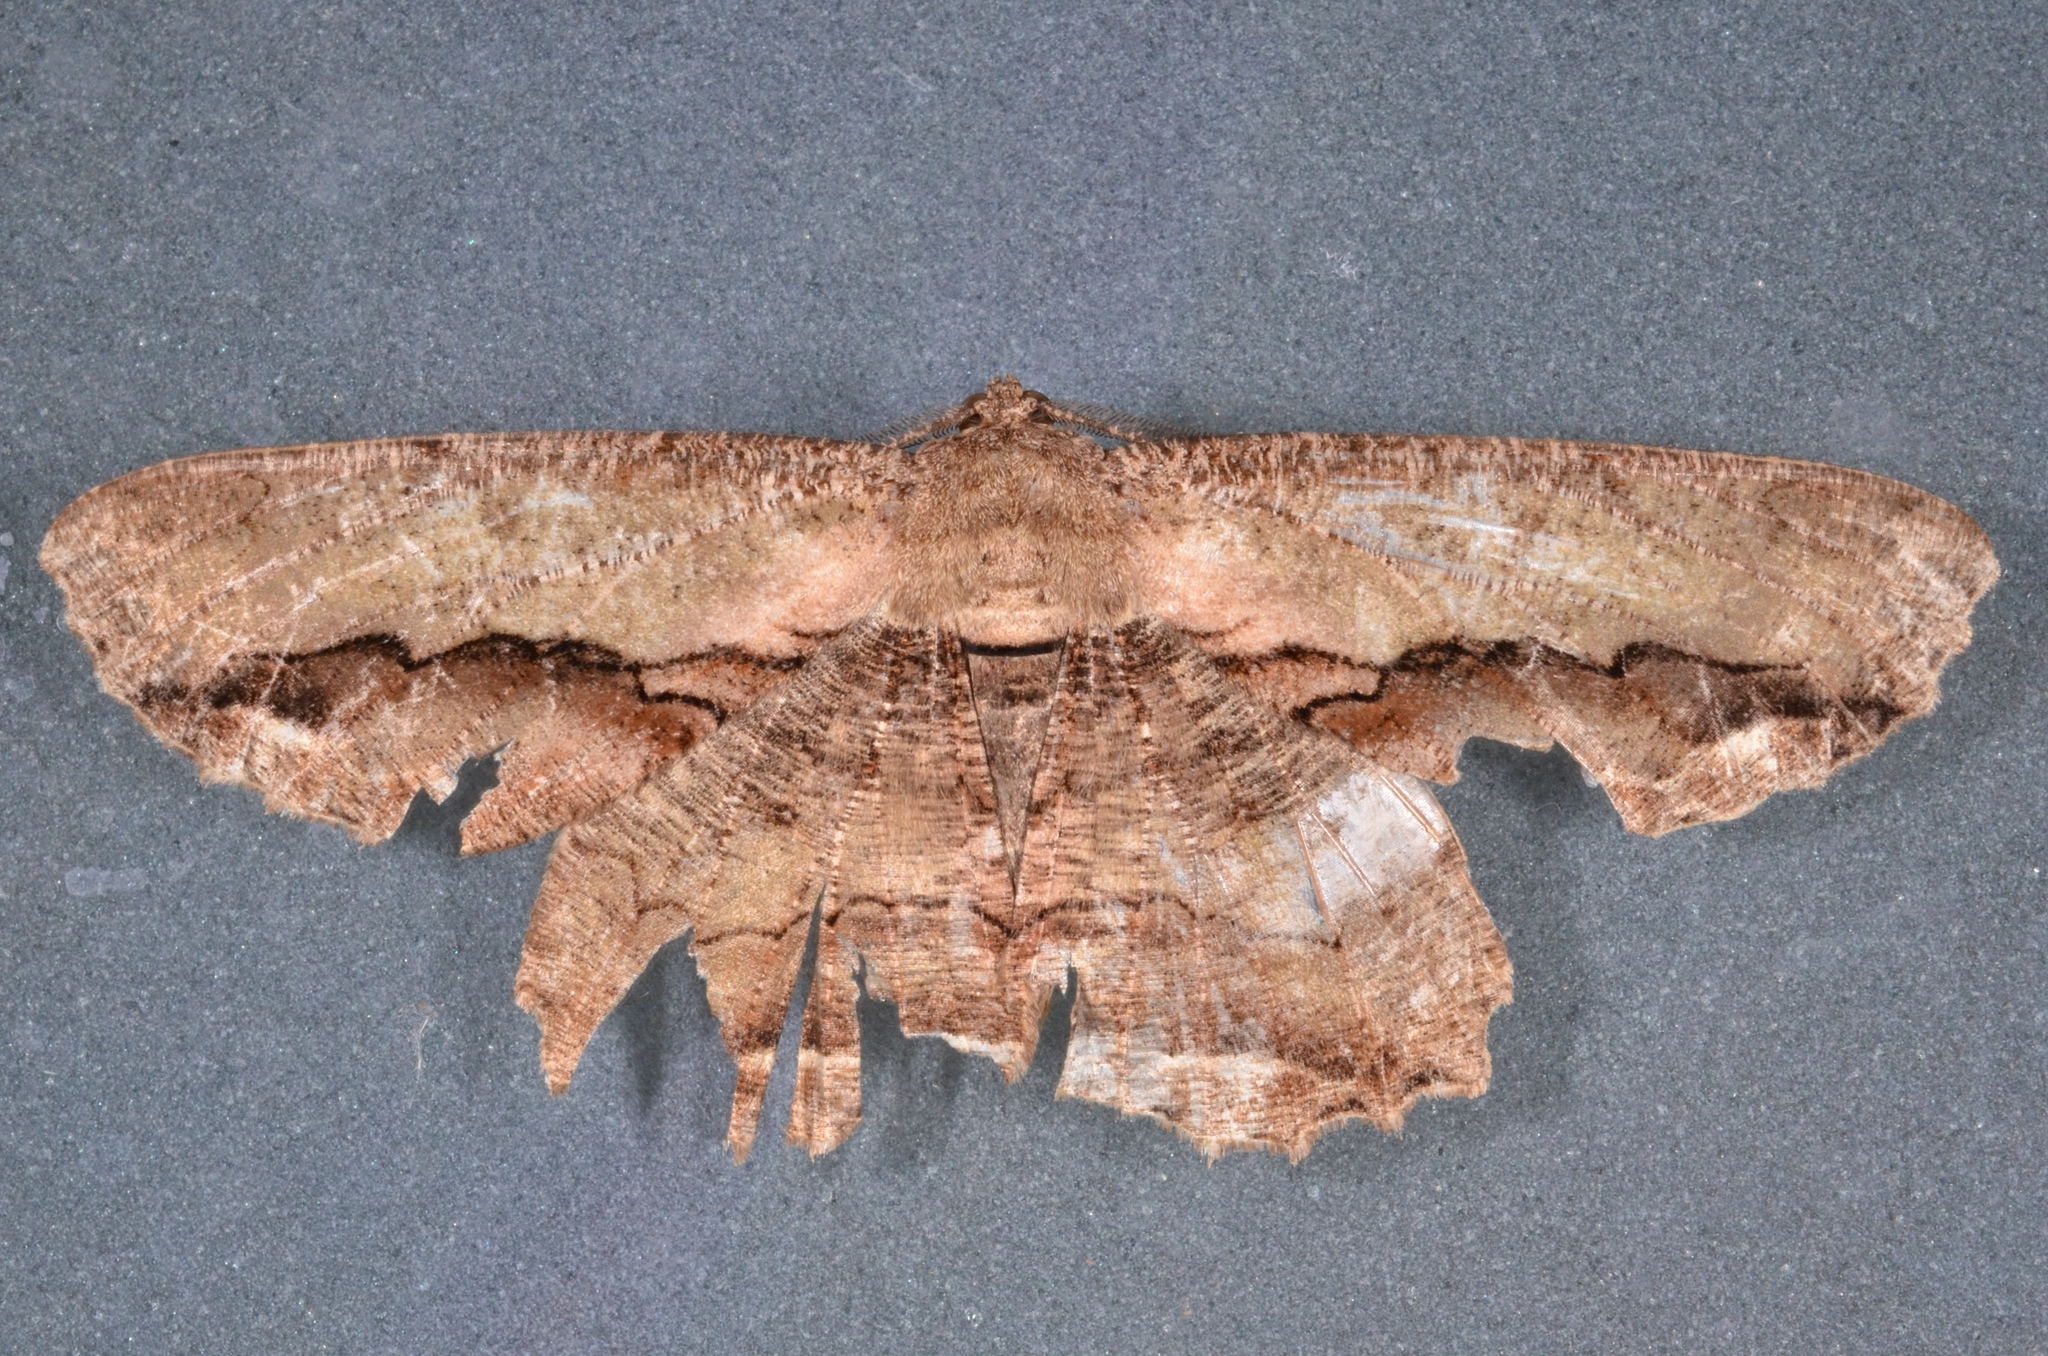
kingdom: Animalia
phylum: Arthropoda
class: Insecta
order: Lepidoptera
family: Geometridae
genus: Chorodna
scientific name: Chorodna strixaria
